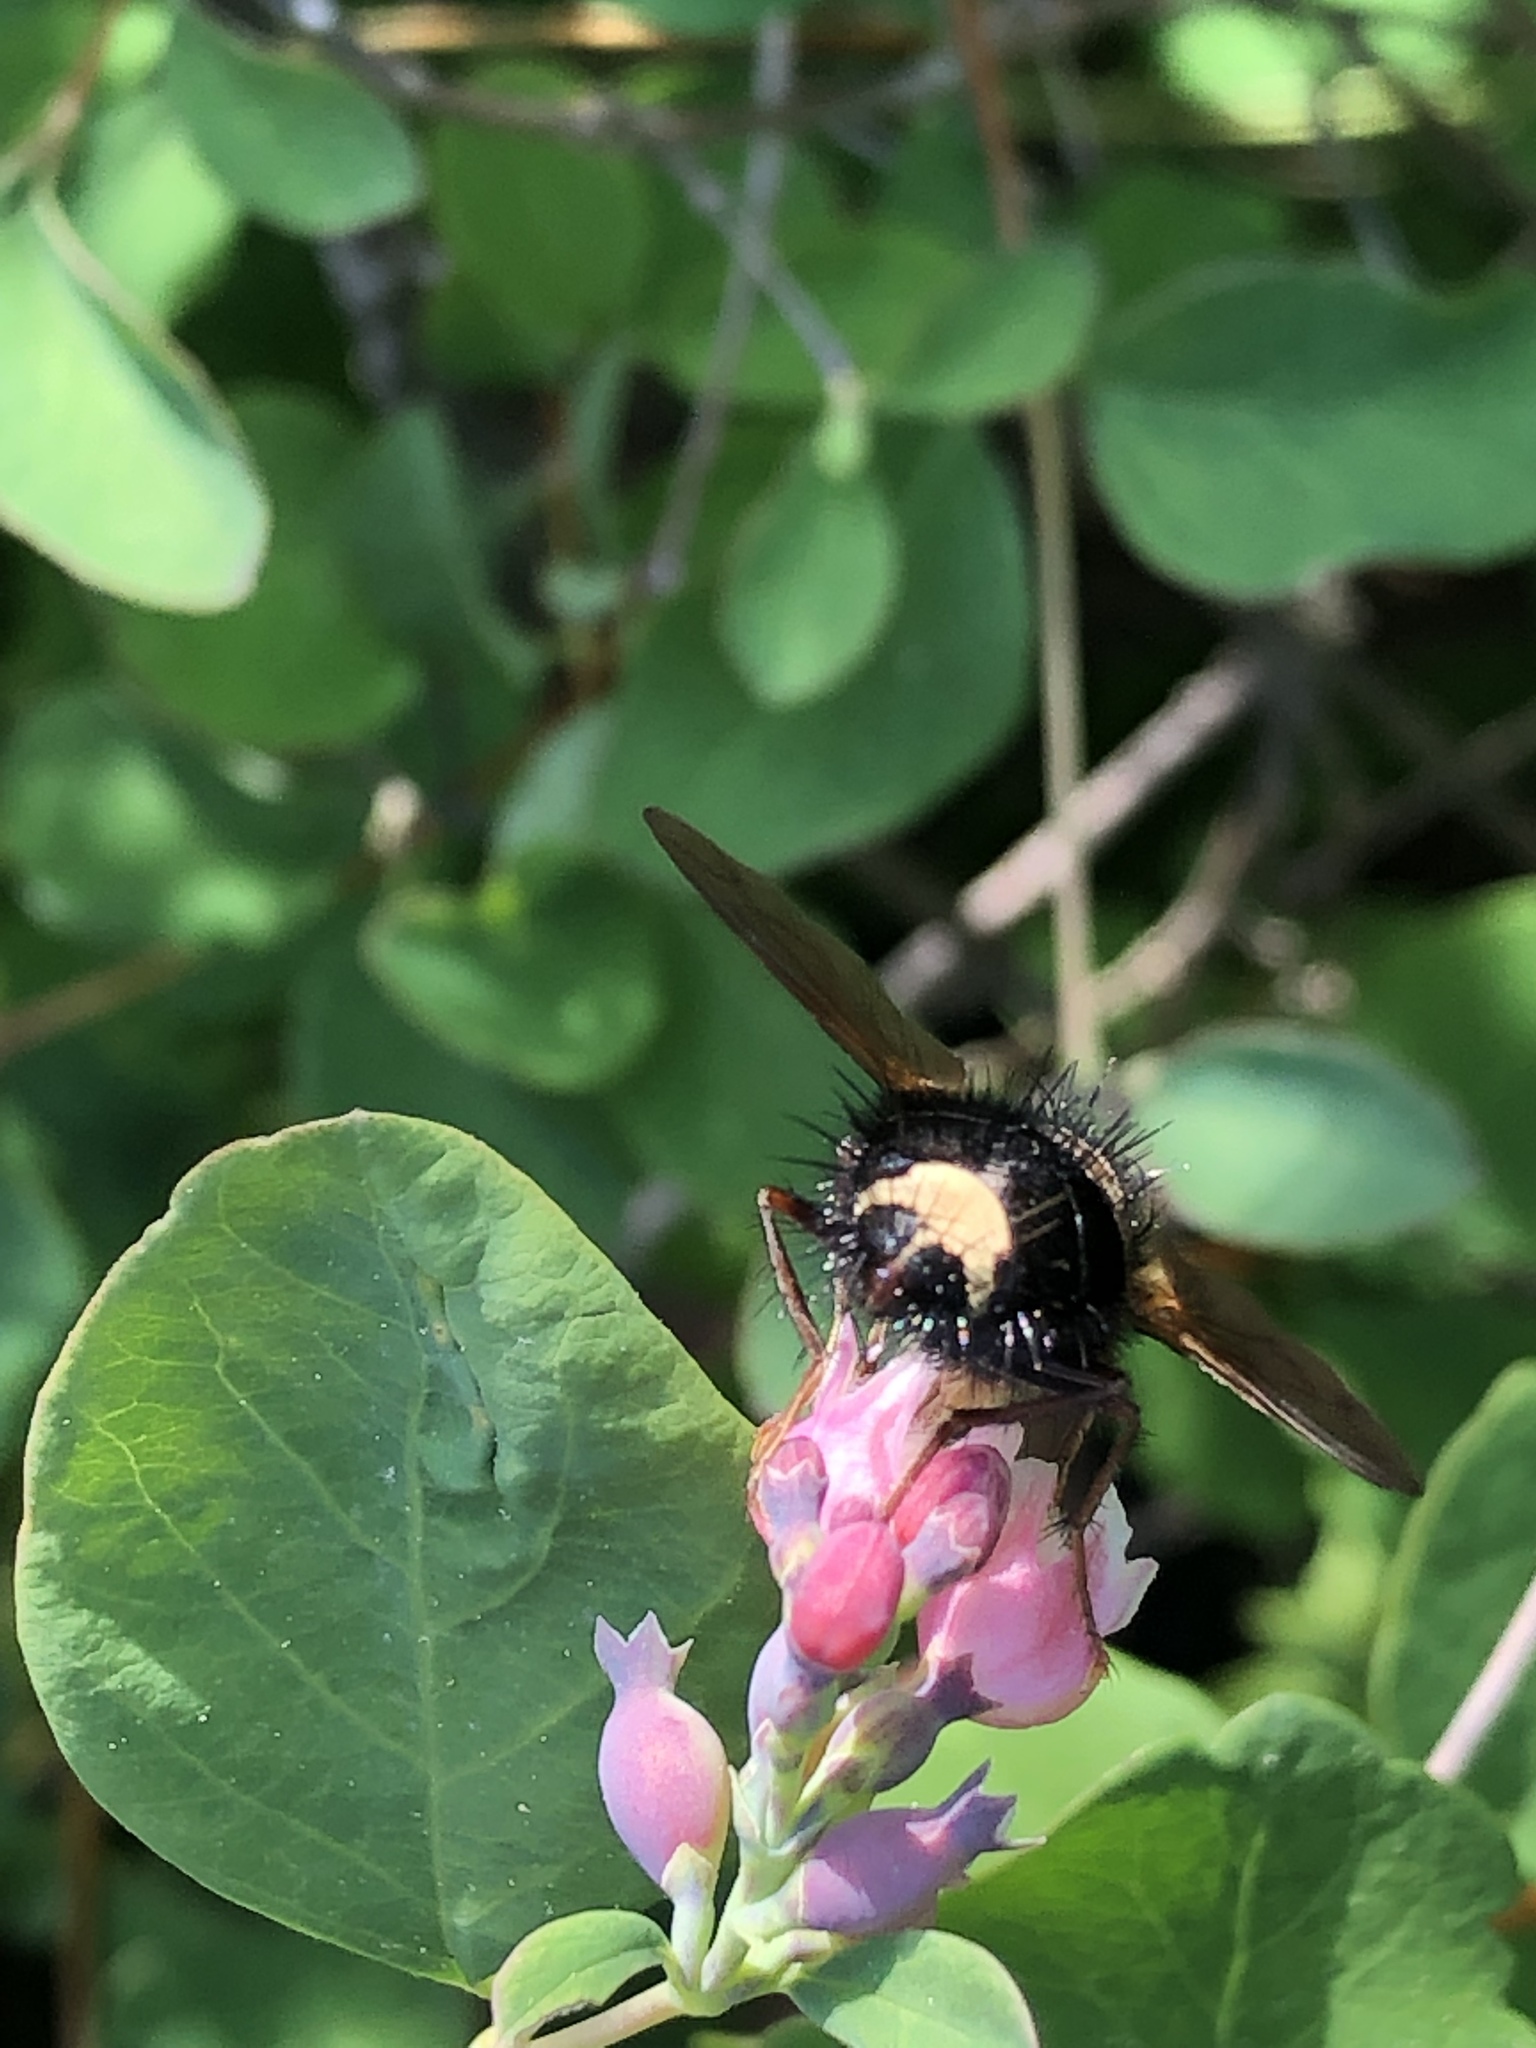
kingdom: Animalia
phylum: Arthropoda
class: Insecta
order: Diptera
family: Tachinidae
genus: Epalpus
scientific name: Epalpus signifer
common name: Early tachinid fly
